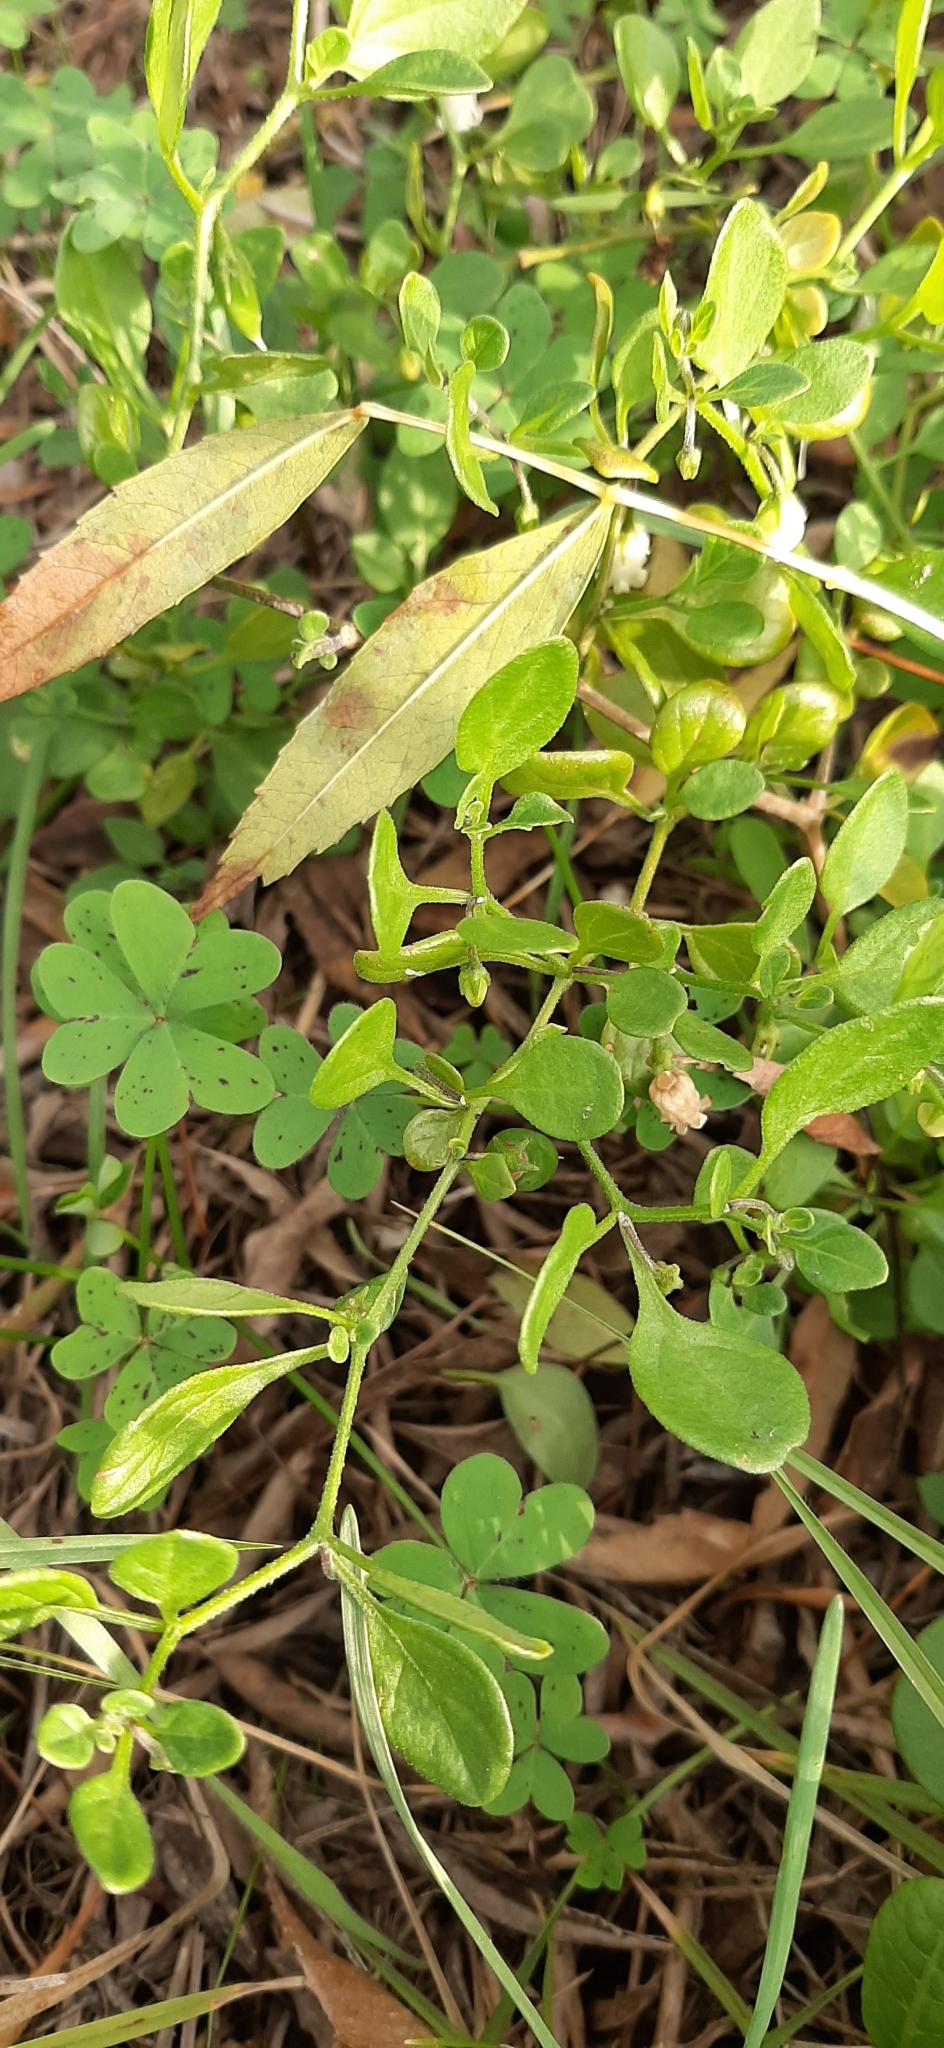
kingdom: Plantae
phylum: Tracheophyta
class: Magnoliopsida
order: Solanales
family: Solanaceae
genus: Salpichroa
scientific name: Salpichroa origanifolia
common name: Lily-of-the-valley-vine
